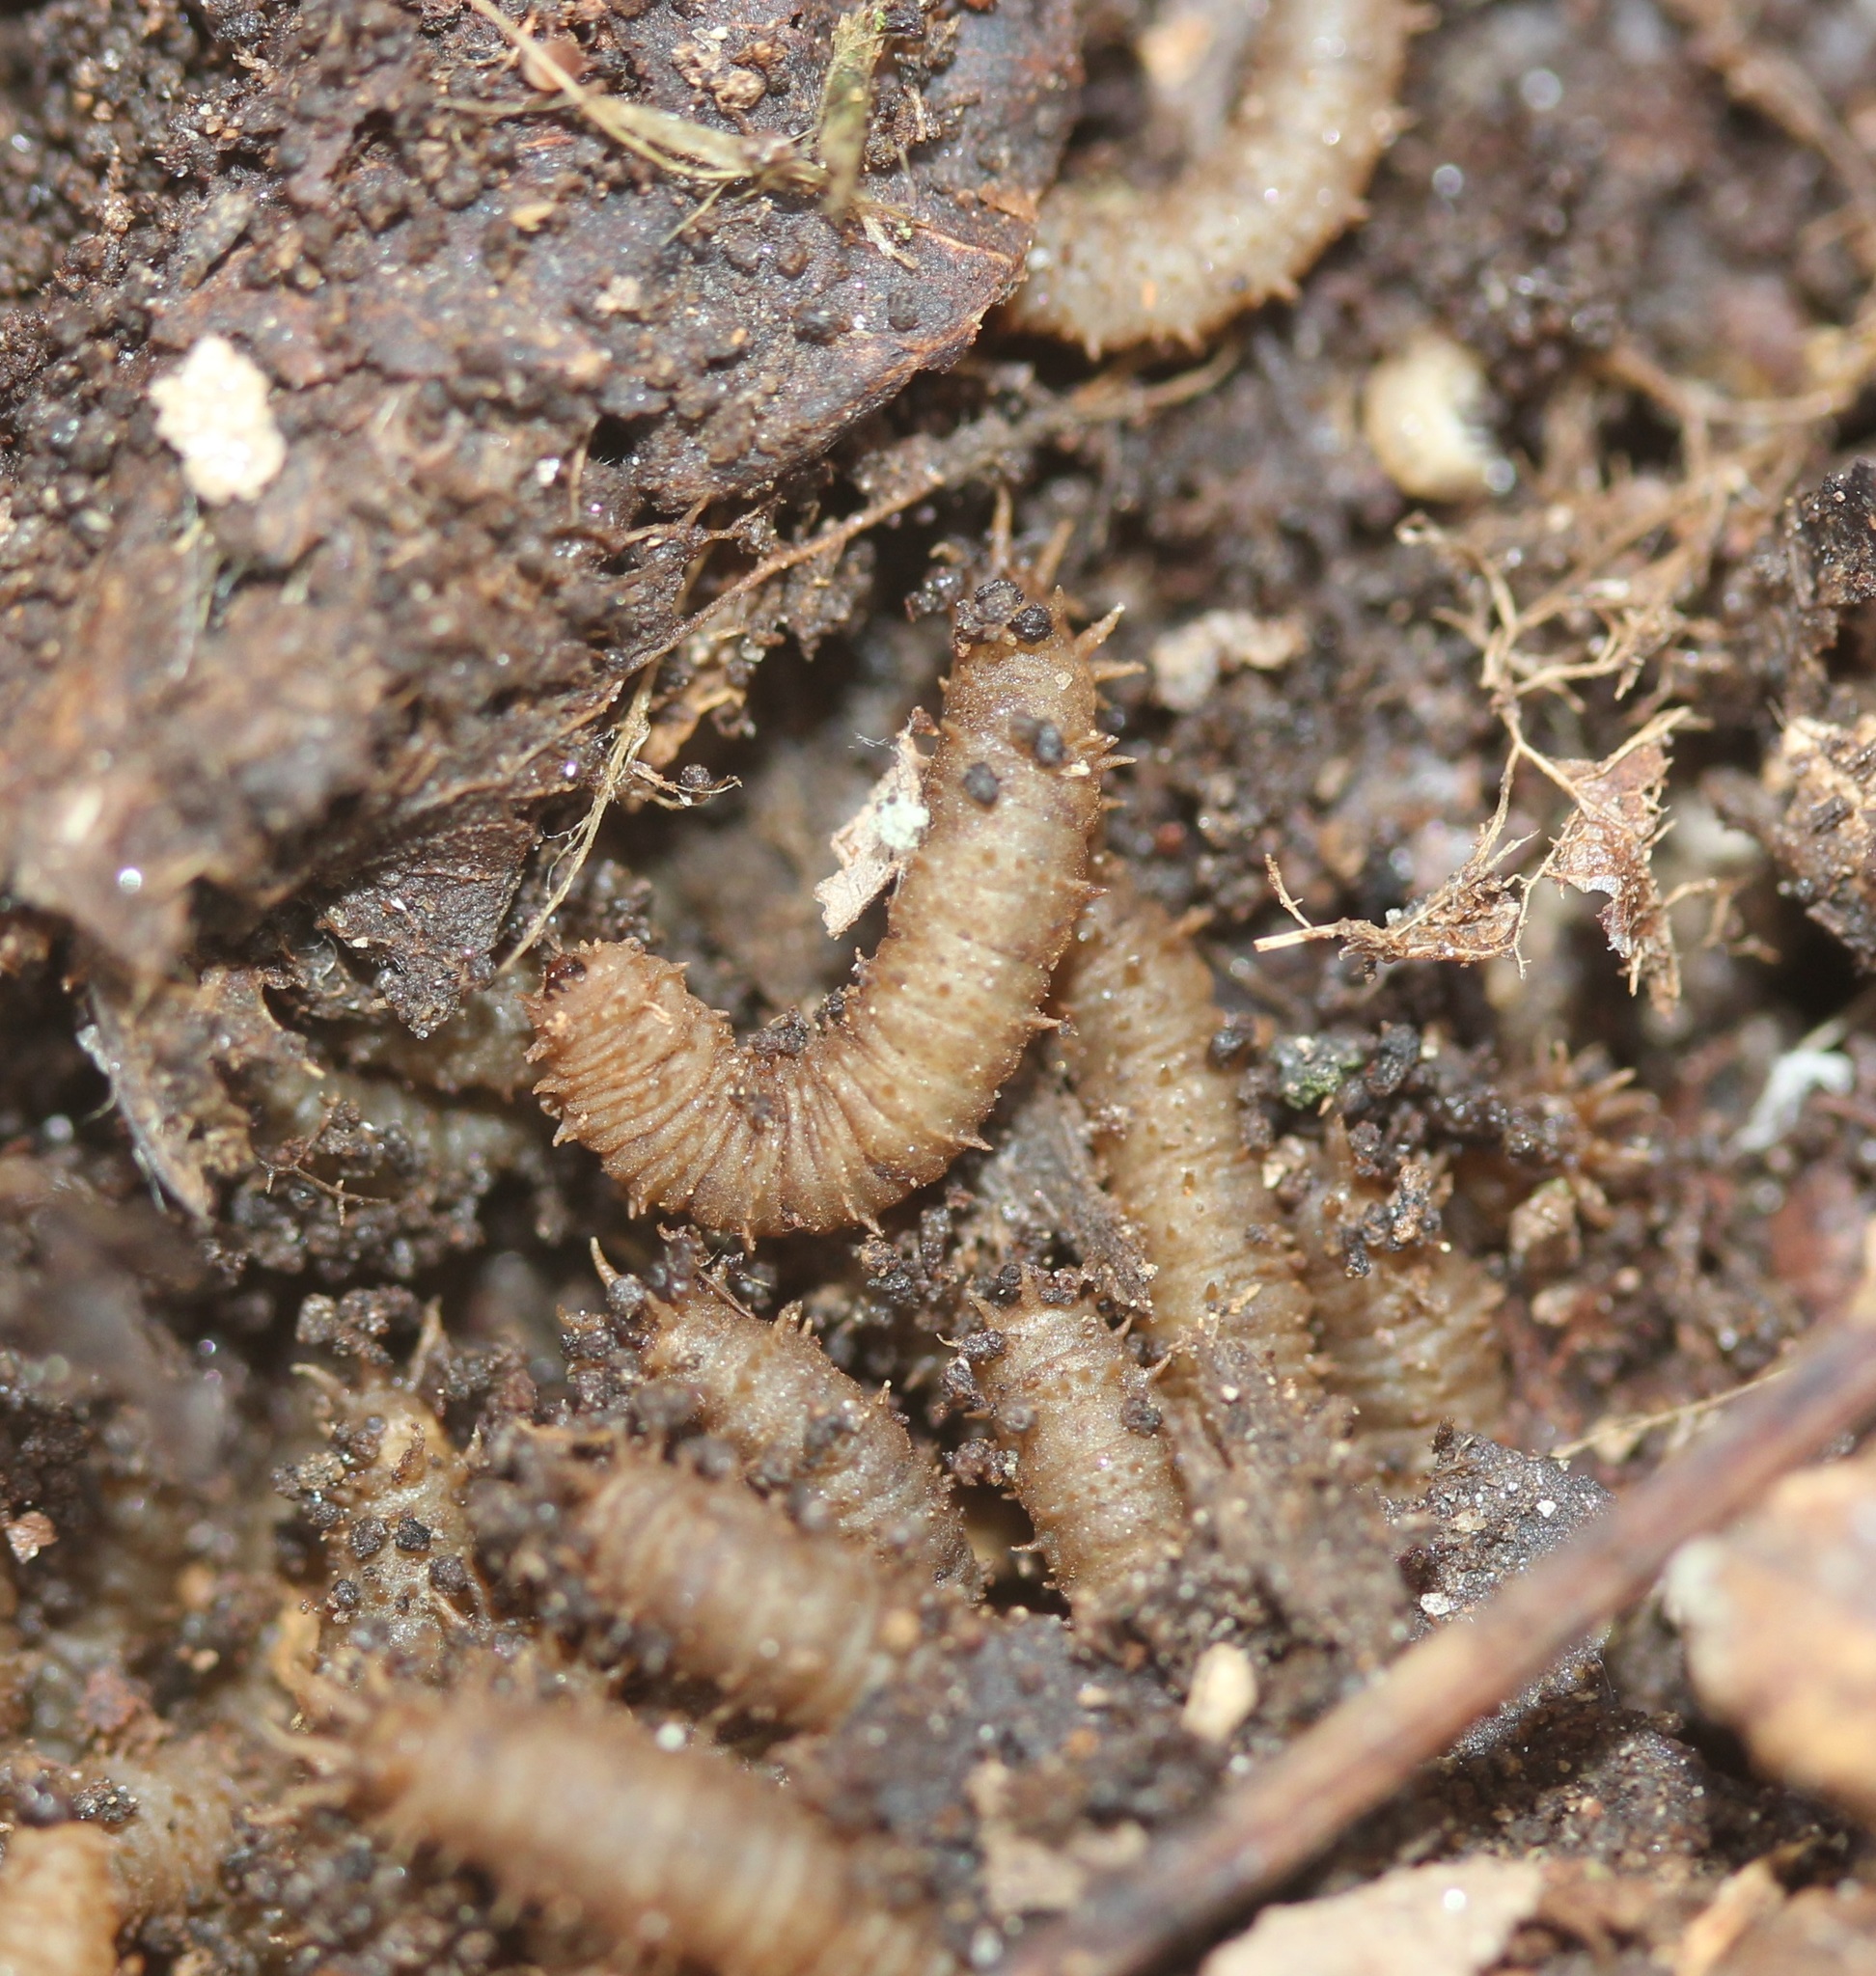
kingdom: Animalia
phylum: Arthropoda
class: Insecta
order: Diptera
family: Bibionidae
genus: Bibio
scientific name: Bibio
